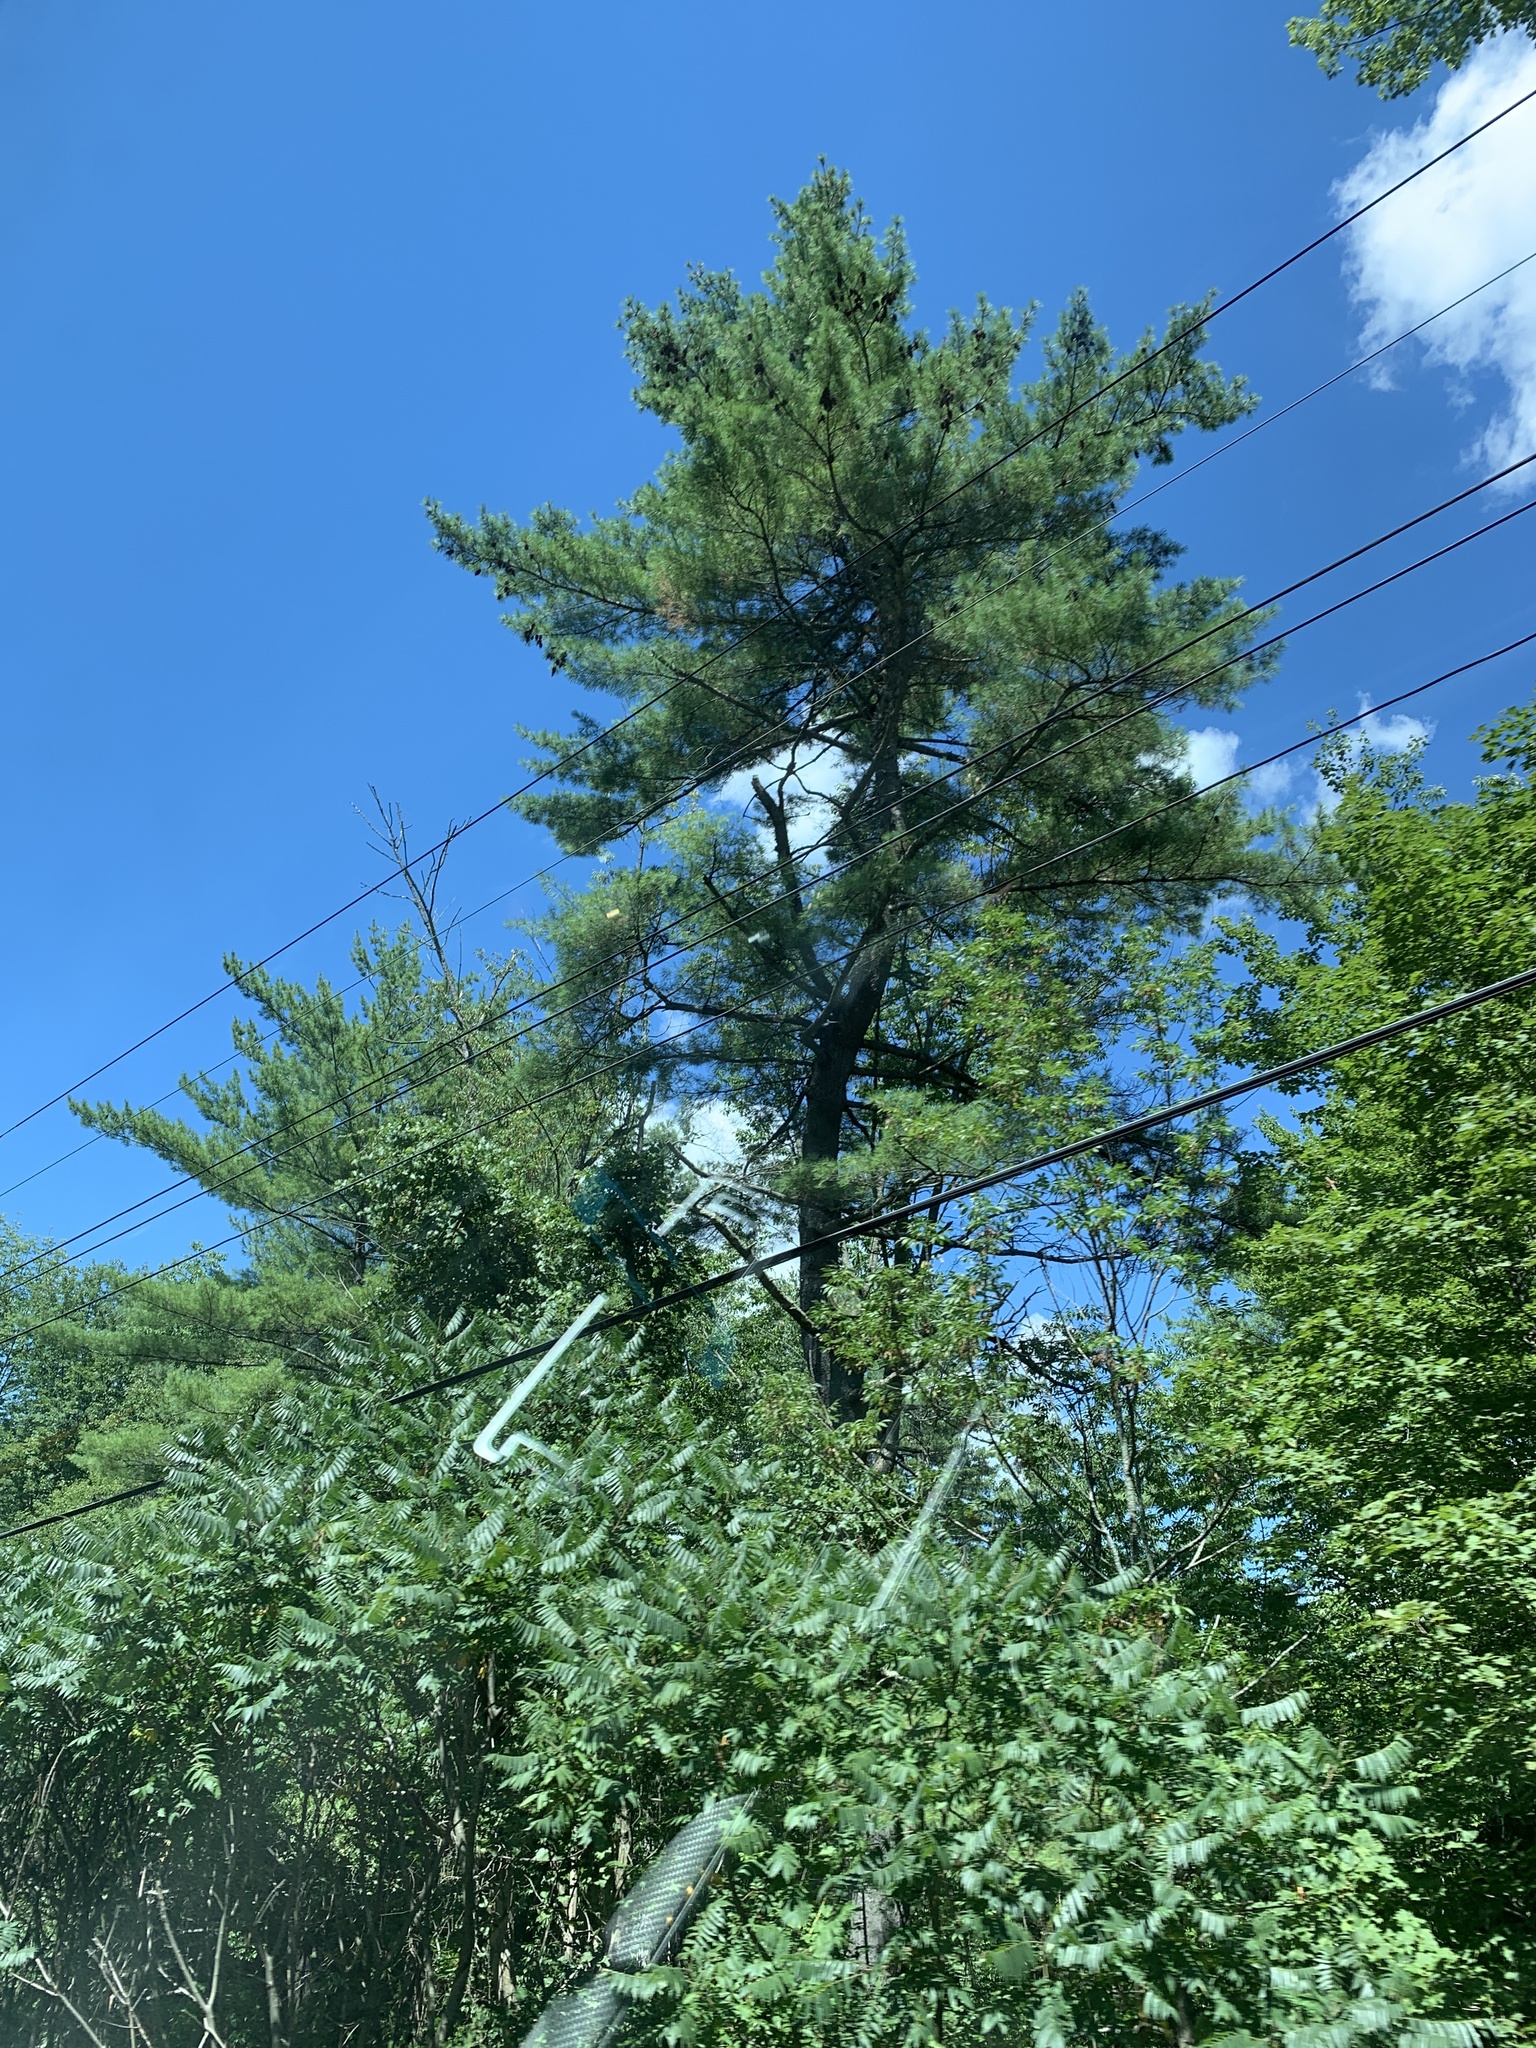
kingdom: Plantae
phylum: Tracheophyta
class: Pinopsida
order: Pinales
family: Pinaceae
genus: Pinus
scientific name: Pinus strobus
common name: Weymouth pine
